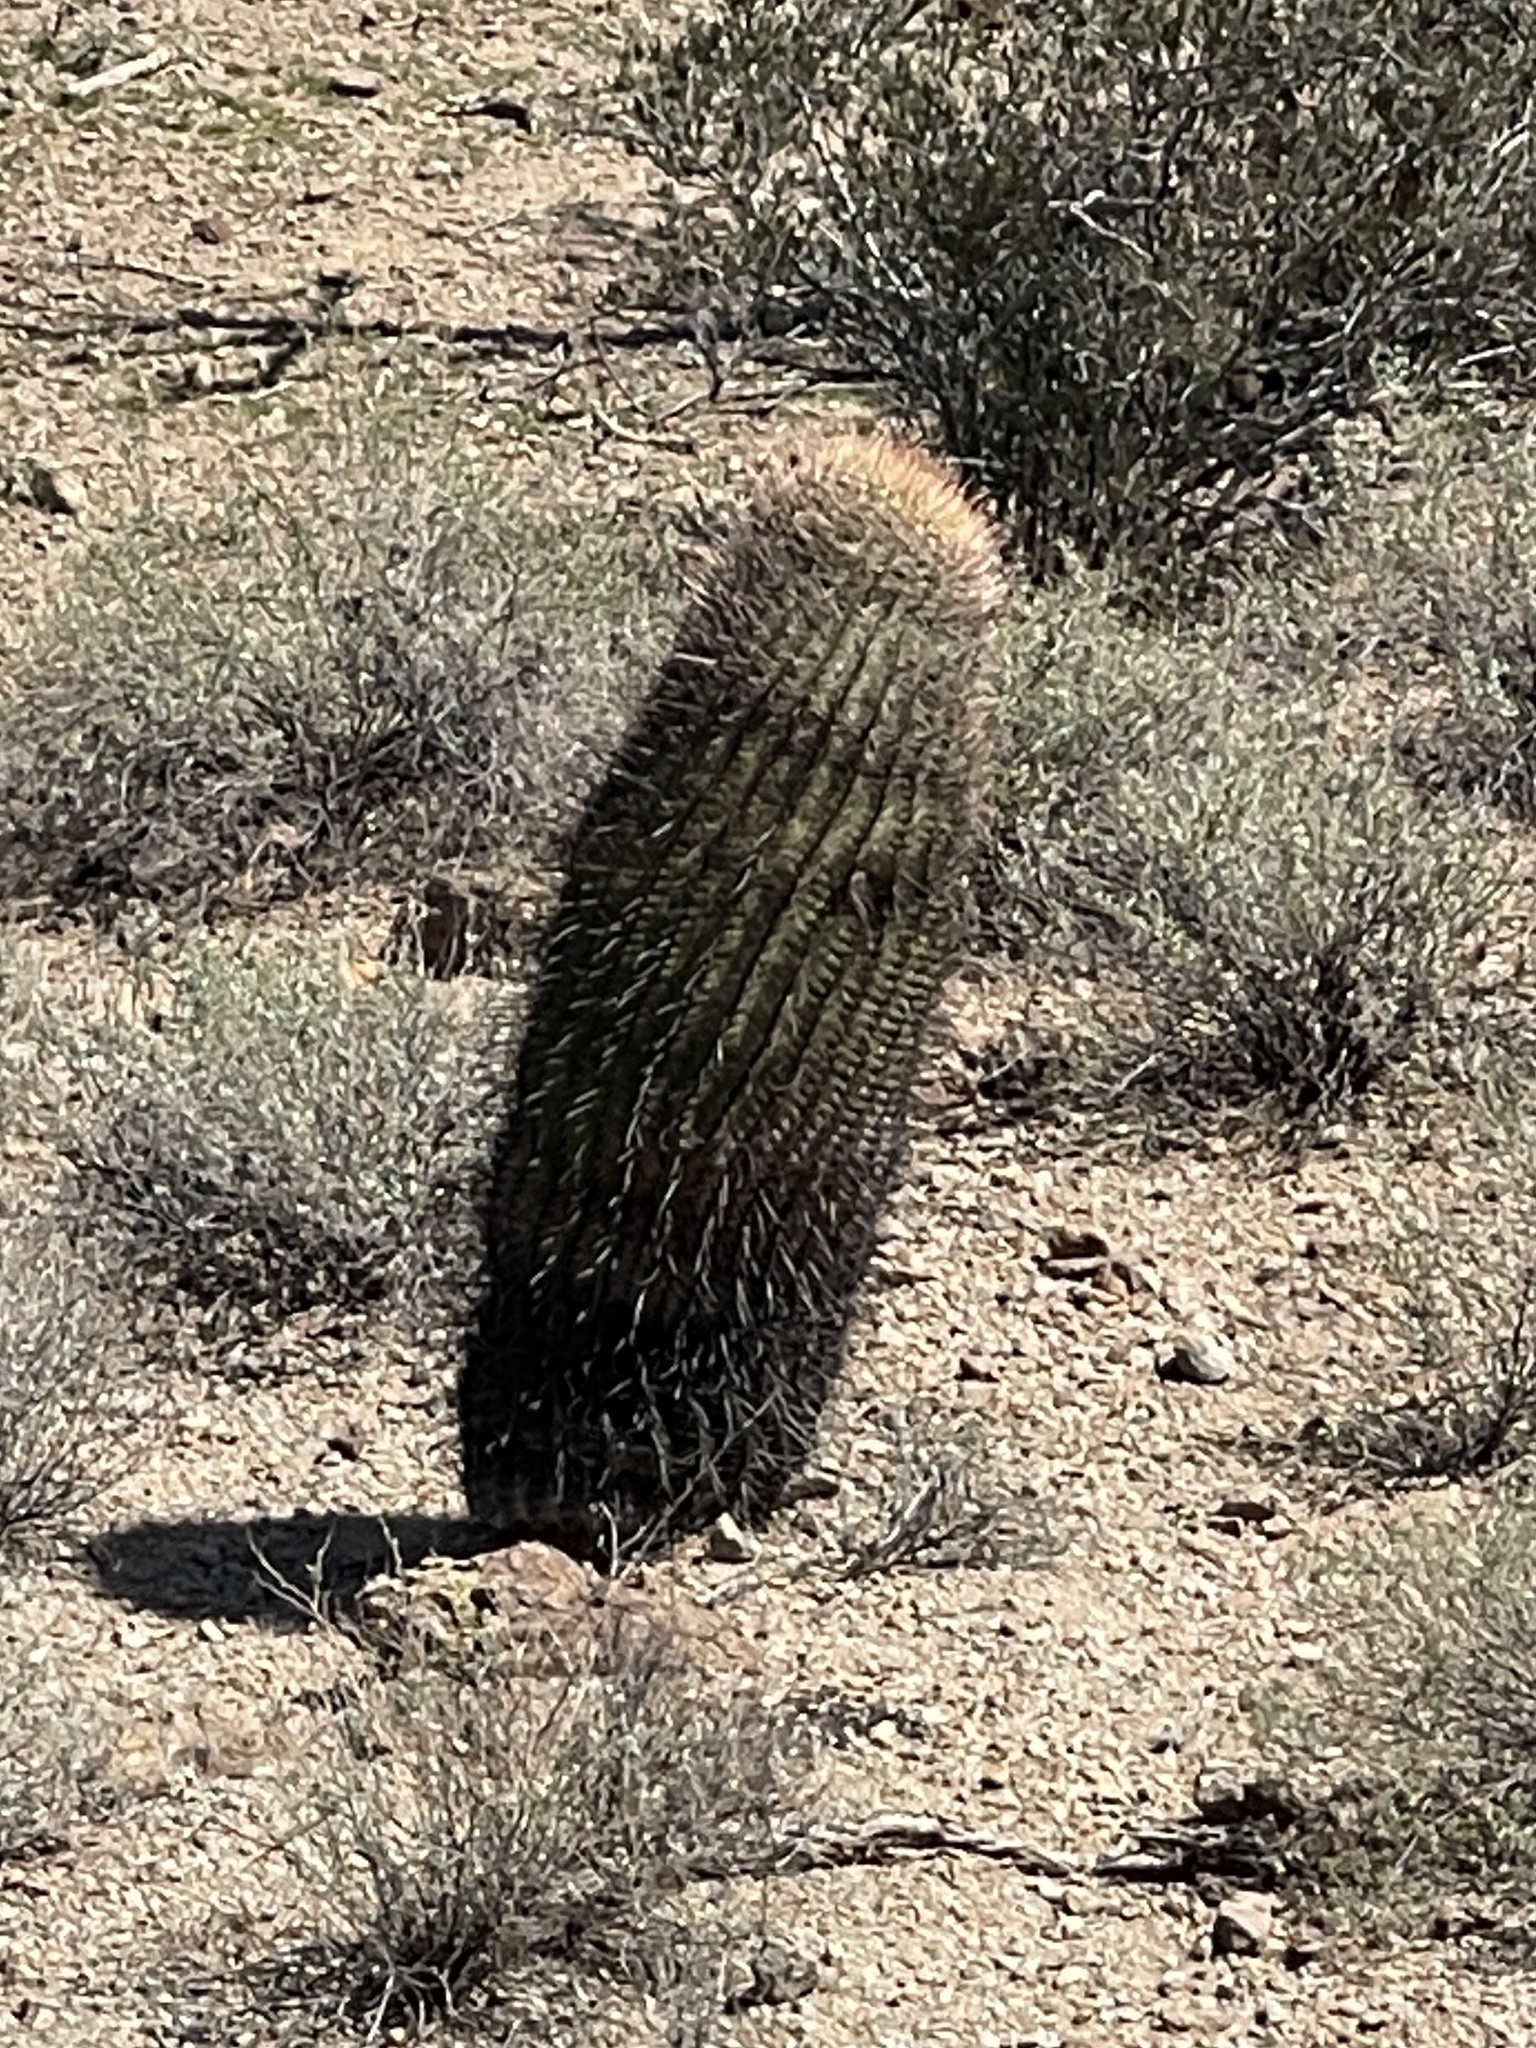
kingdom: Plantae
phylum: Tracheophyta
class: Magnoliopsida
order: Caryophyllales
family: Cactaceae
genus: Ferocactus
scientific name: Ferocactus wislizeni
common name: Candy barrel cactus
